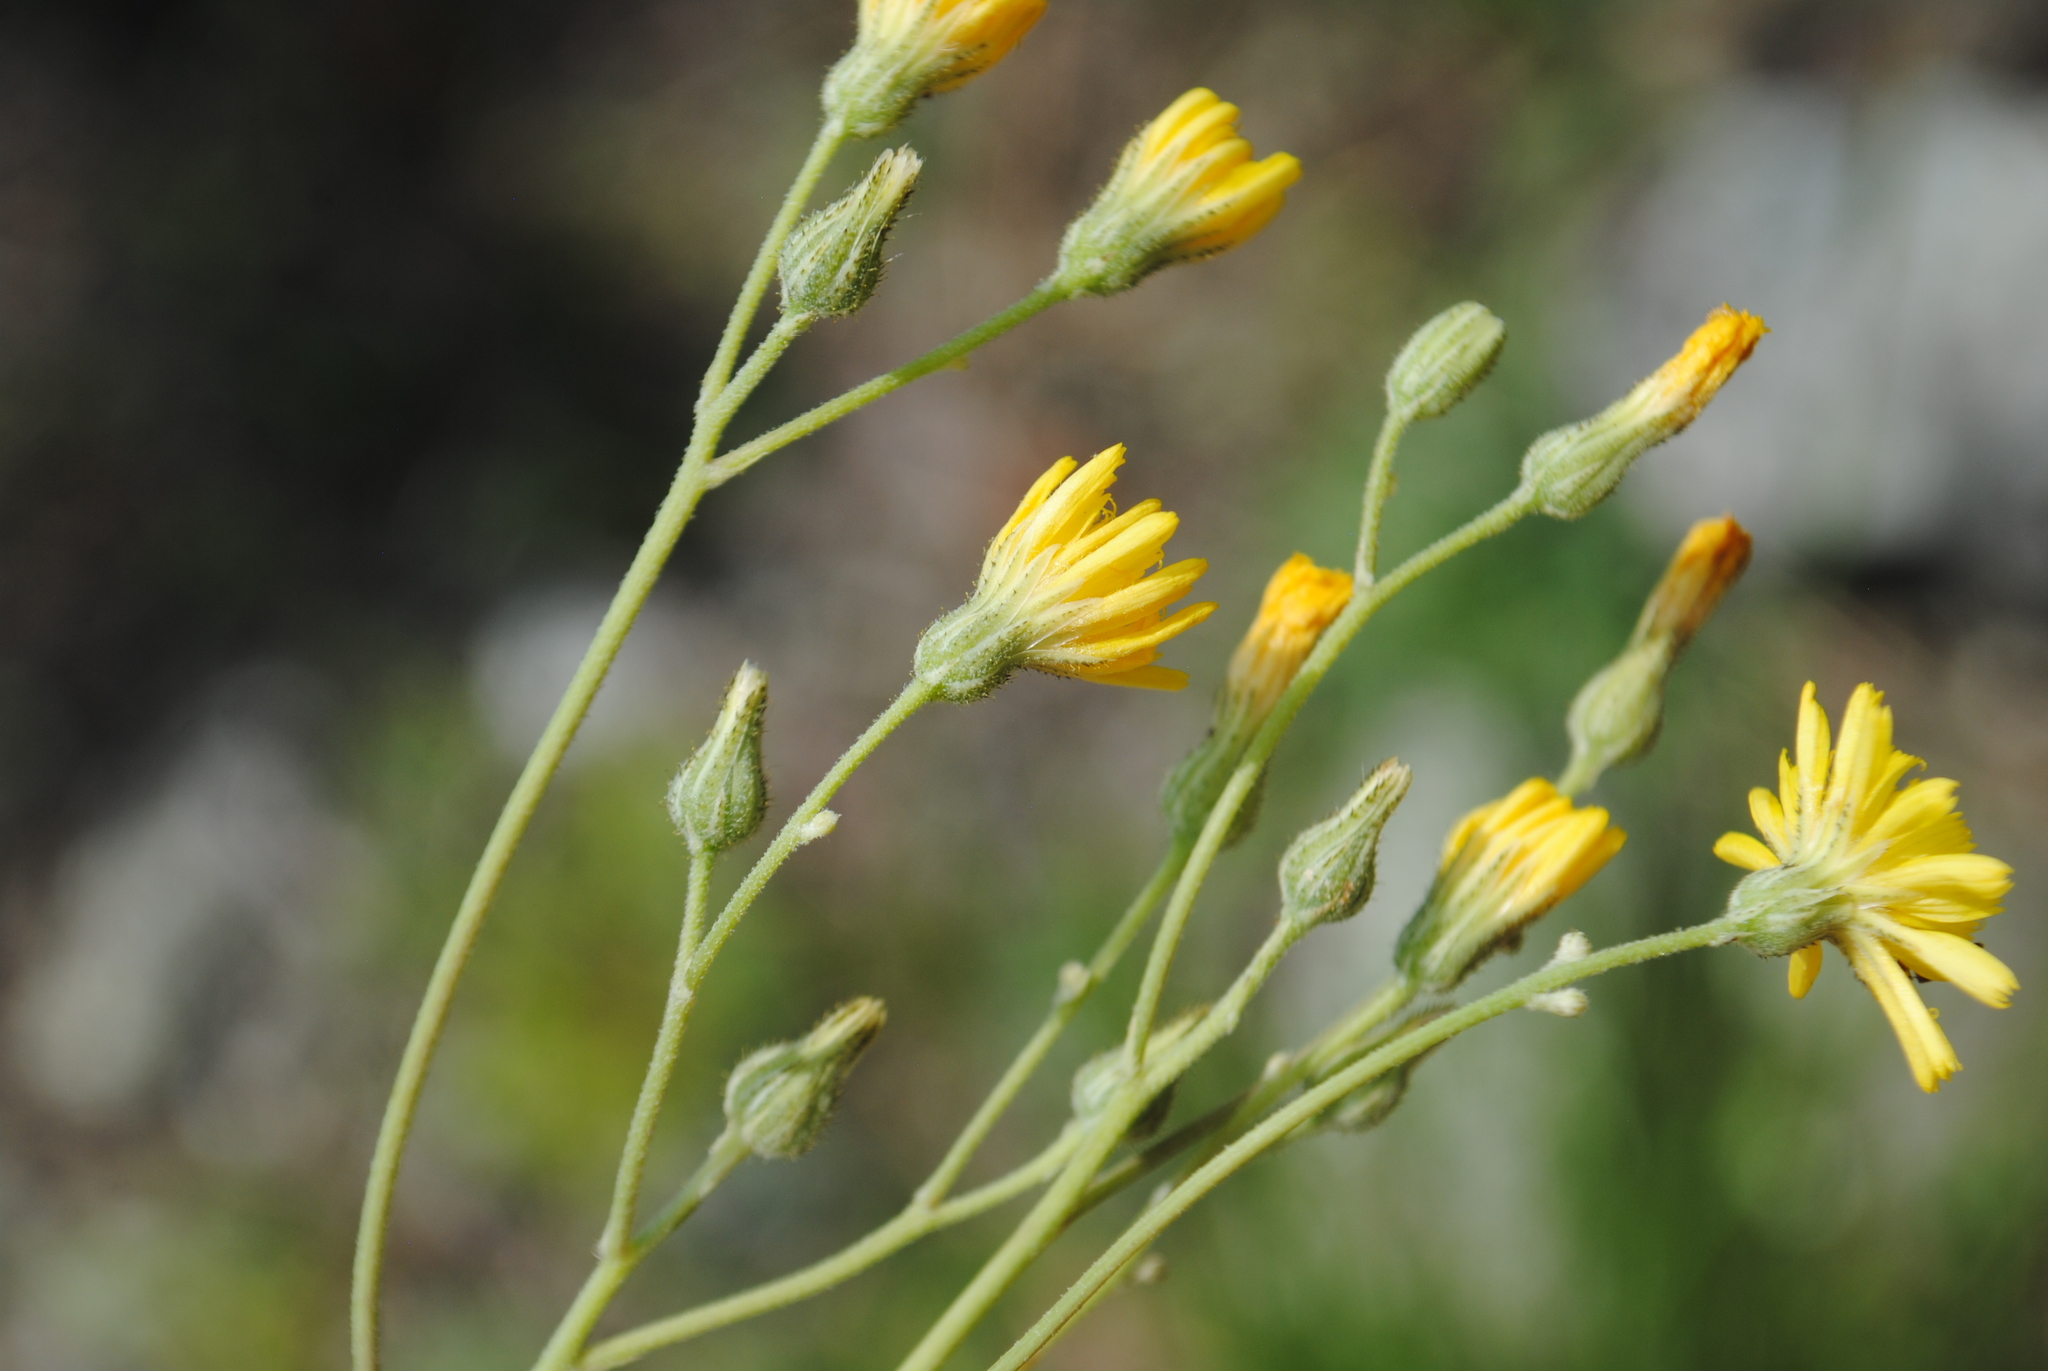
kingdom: Plantae
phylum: Tracheophyta
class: Magnoliopsida
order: Asterales
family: Asteraceae
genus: Pilosella
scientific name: Pilosella piloselloides
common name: Glaucous king-devil
